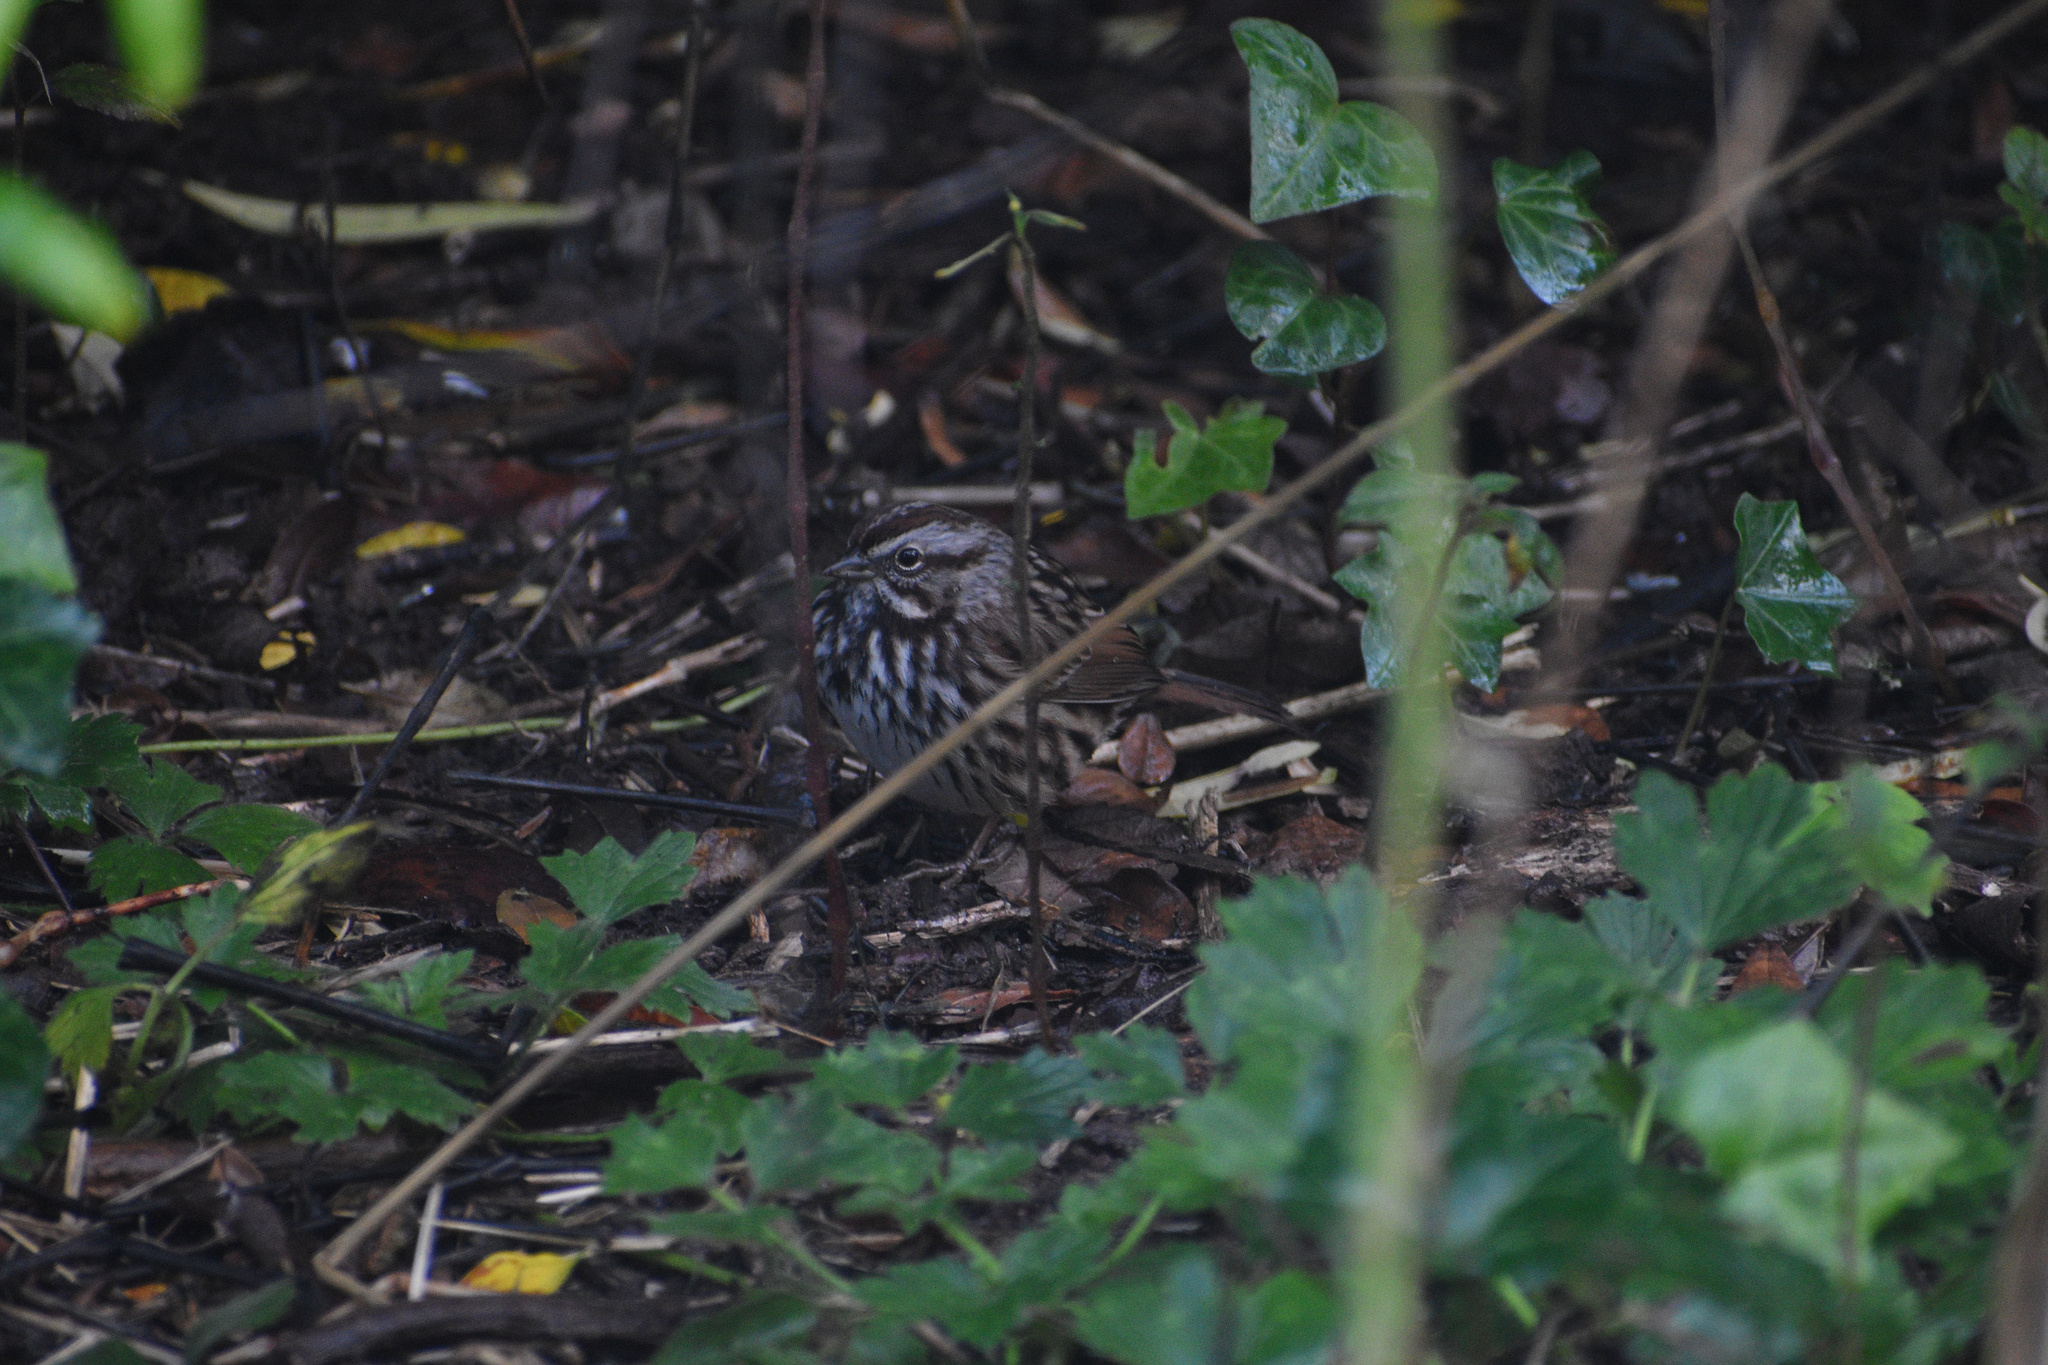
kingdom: Animalia
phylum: Chordata
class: Aves
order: Passeriformes
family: Passerellidae
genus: Melospiza
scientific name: Melospiza melodia
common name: Song sparrow
